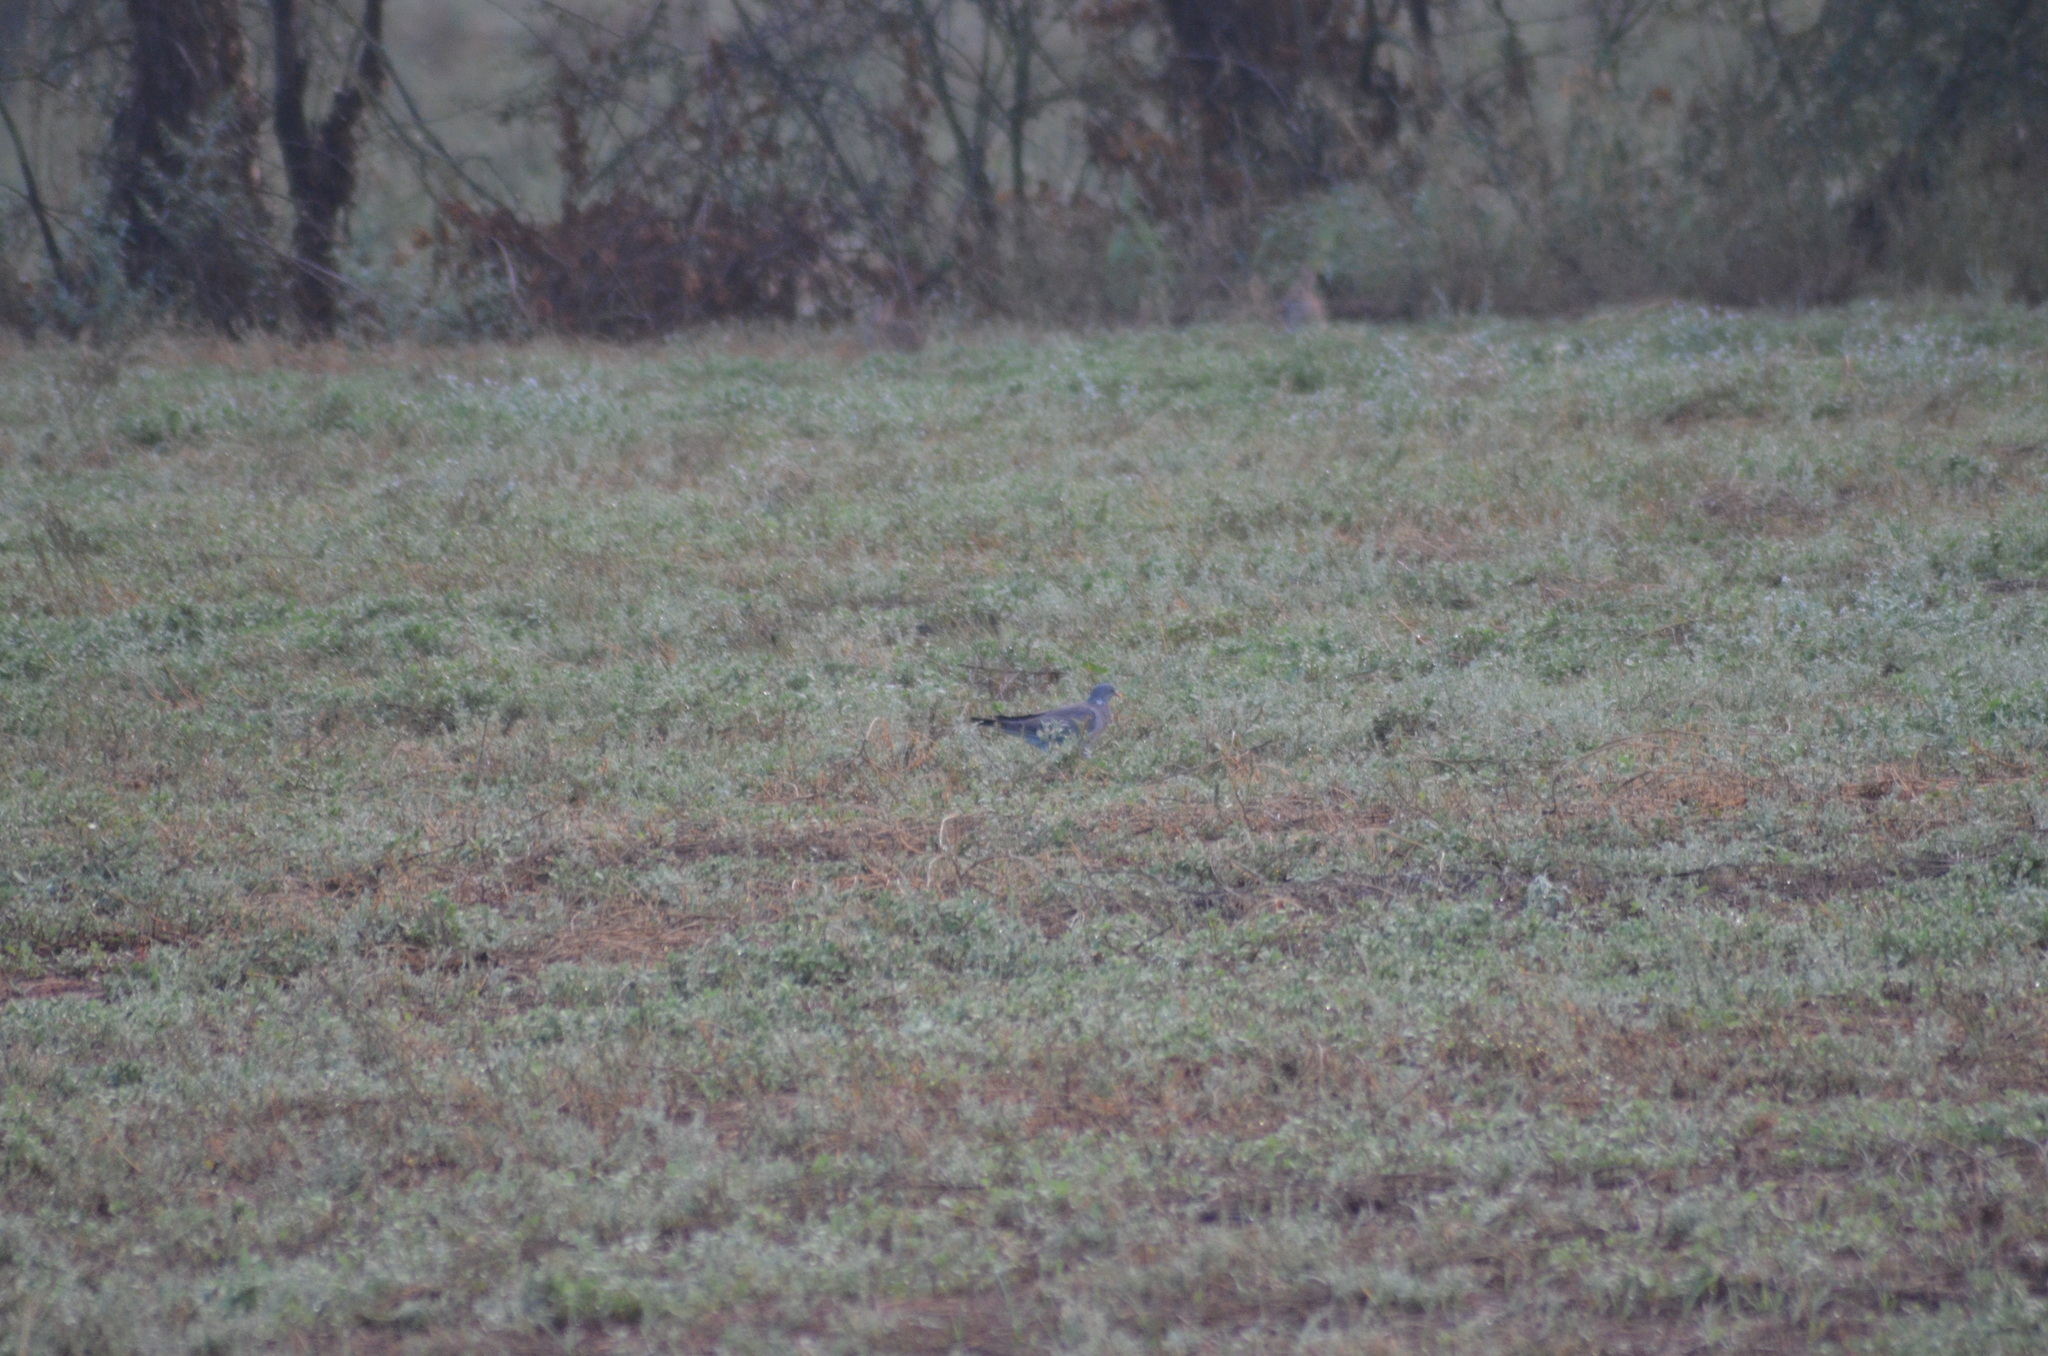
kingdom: Animalia
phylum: Chordata
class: Aves
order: Columbiformes
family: Columbidae
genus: Columba
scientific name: Columba palumbus
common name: Common wood pigeon
